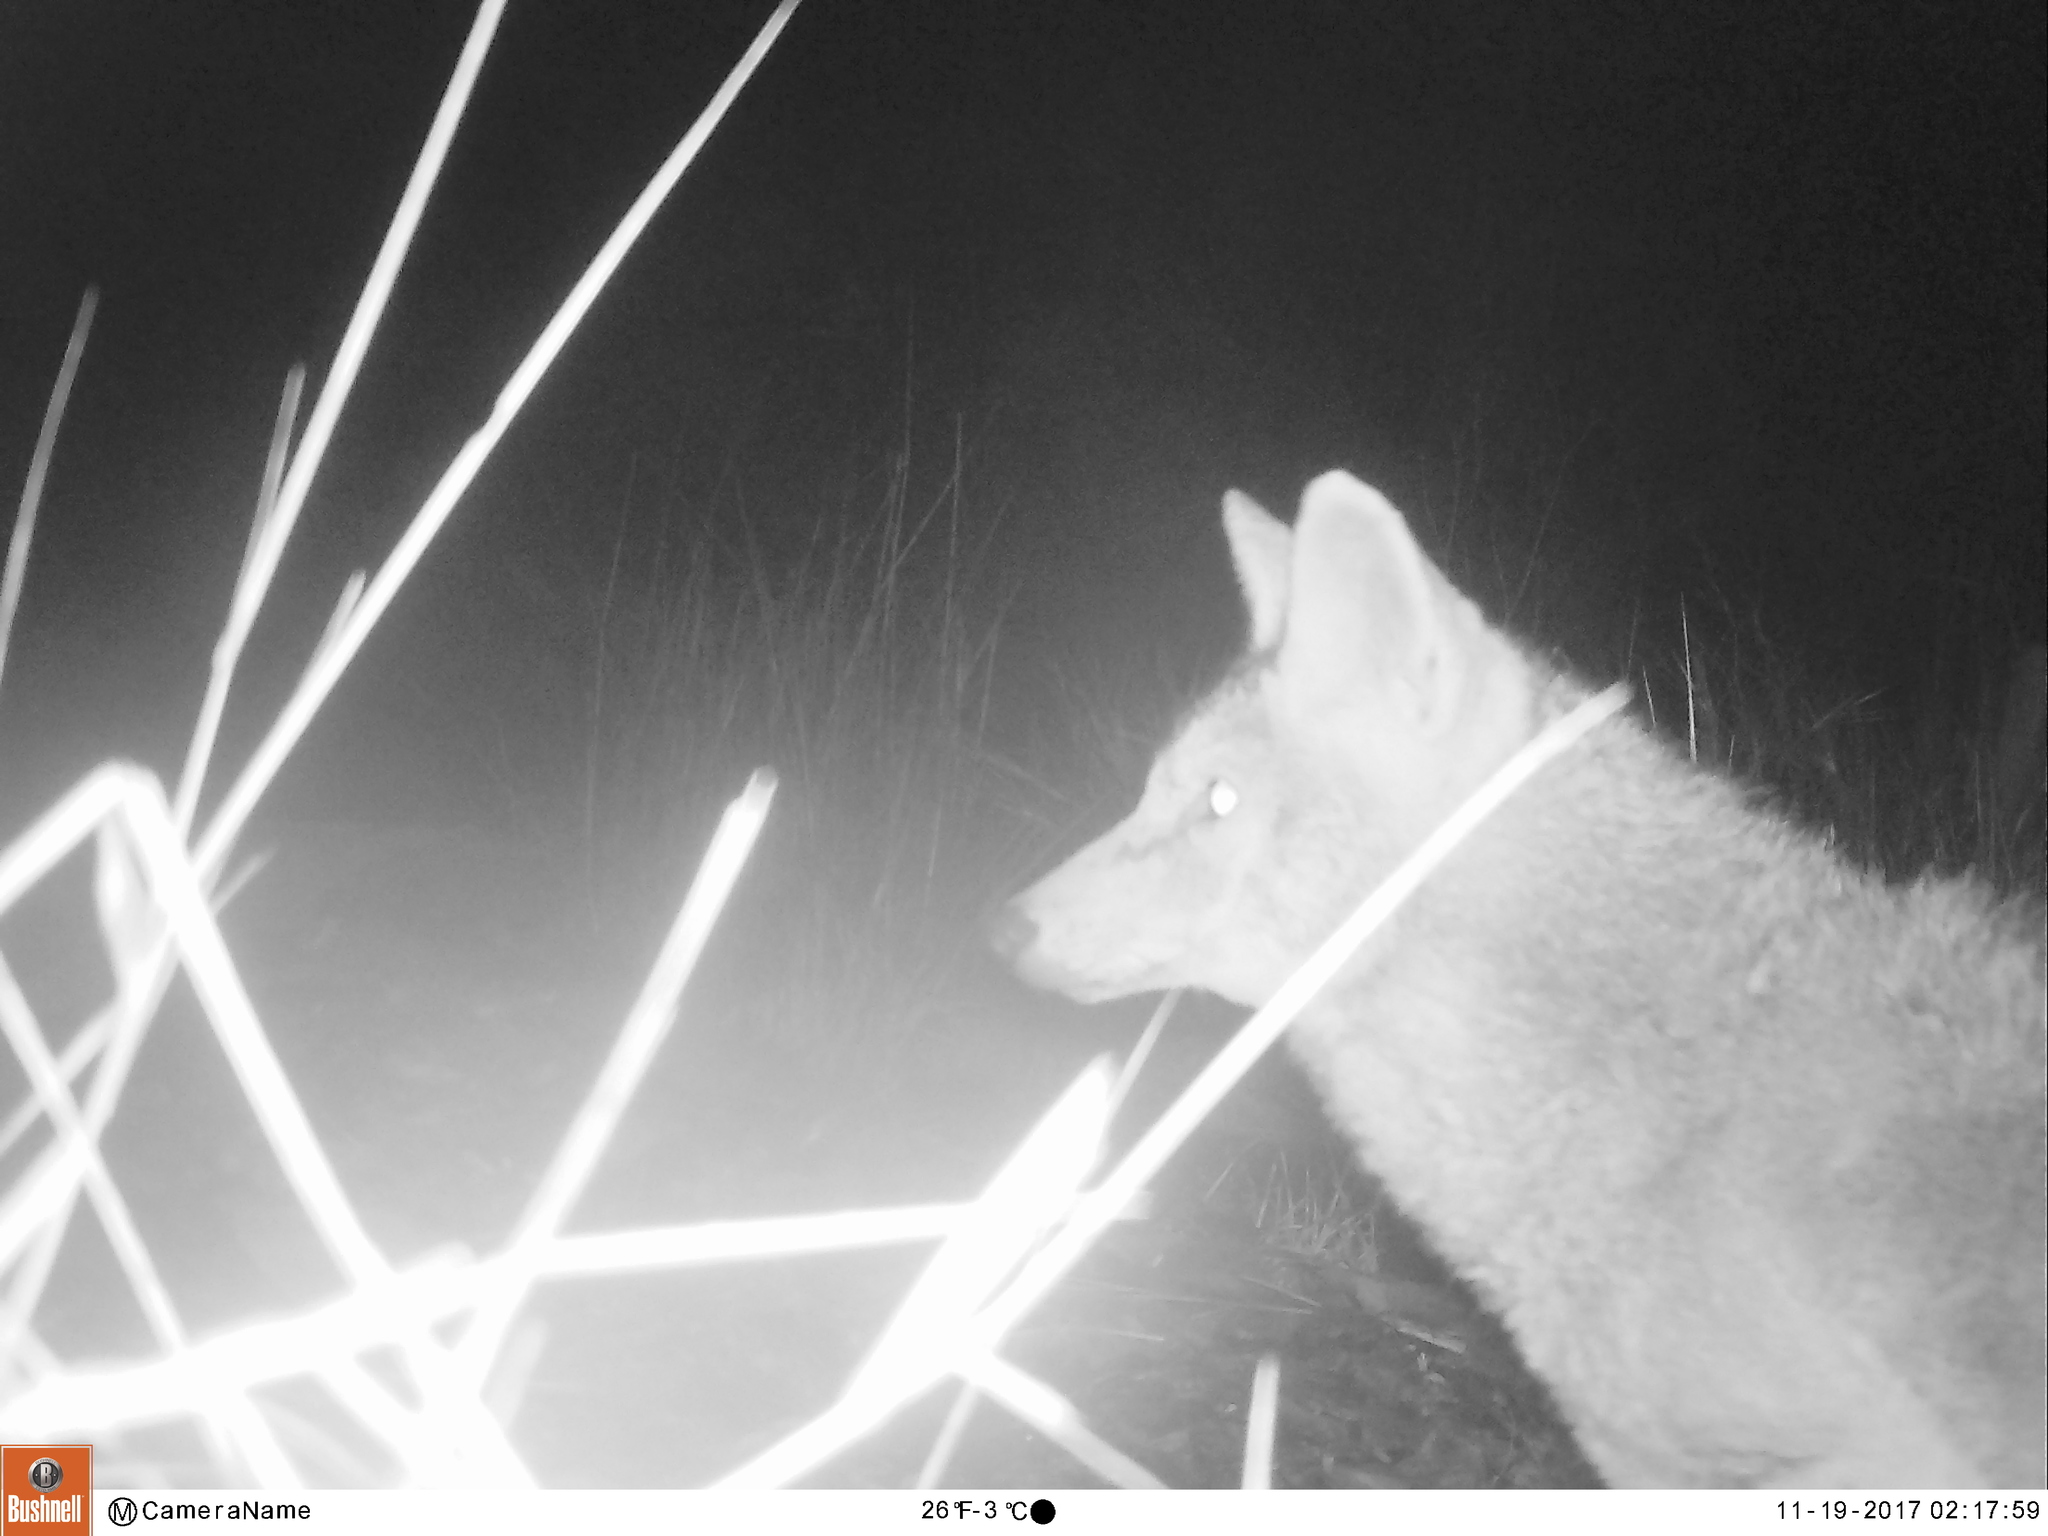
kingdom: Animalia
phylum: Chordata
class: Mammalia
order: Carnivora
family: Canidae
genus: Canis
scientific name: Canis latrans
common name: Coyote
